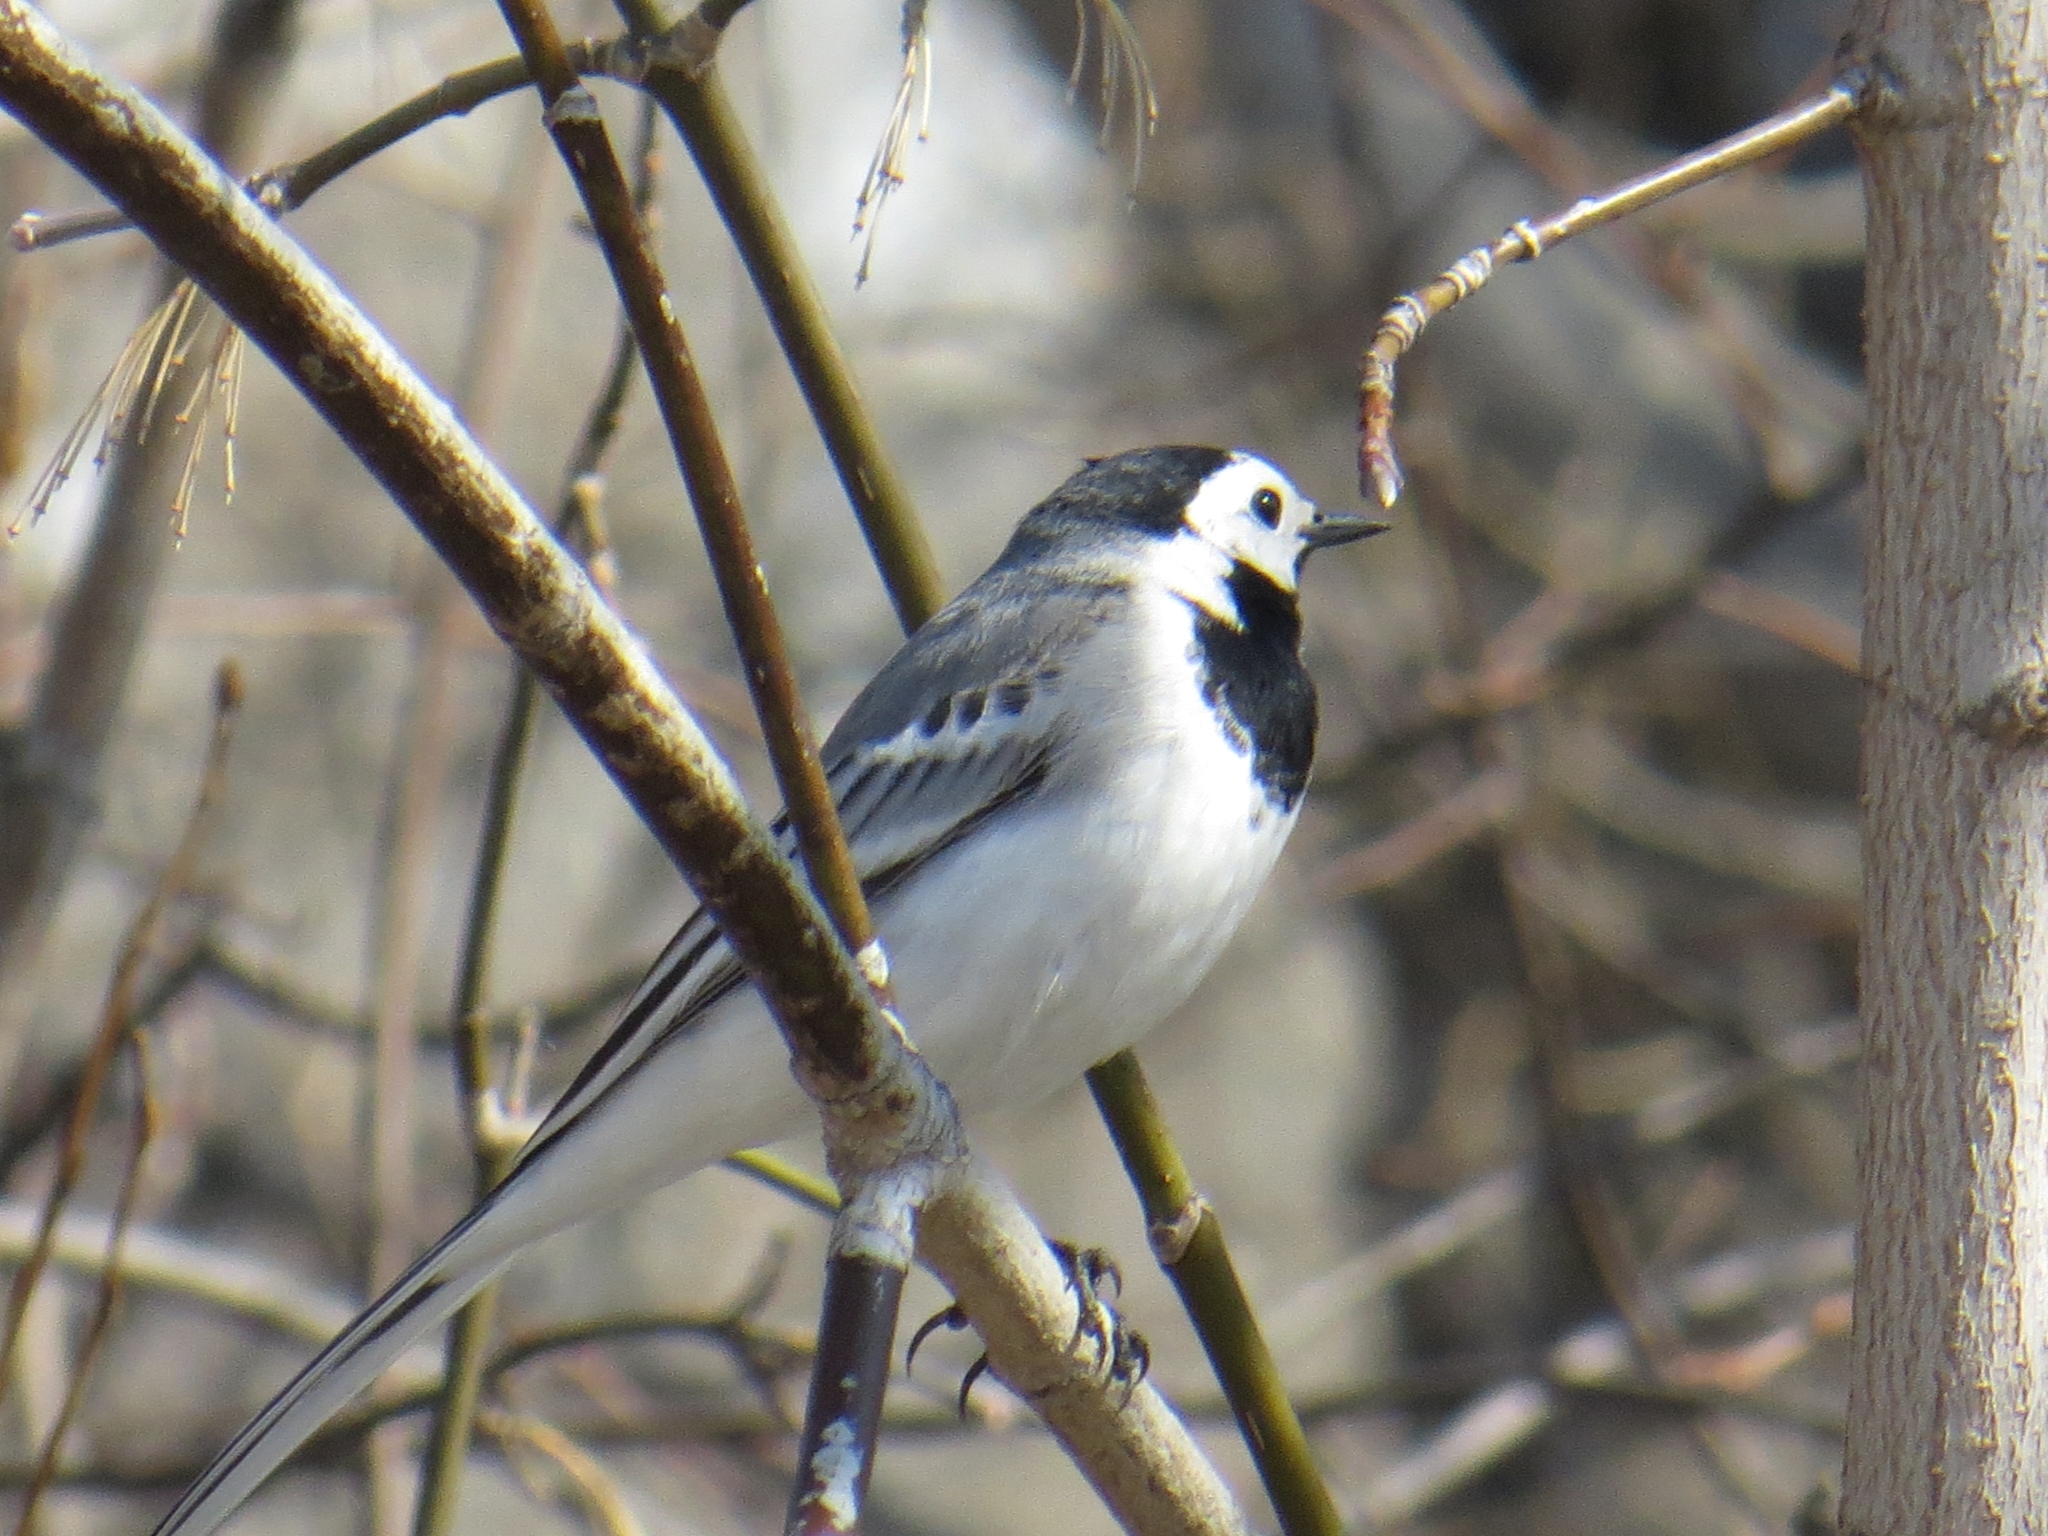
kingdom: Animalia
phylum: Chordata
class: Aves
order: Passeriformes
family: Motacillidae
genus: Motacilla
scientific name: Motacilla alba
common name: White wagtail
